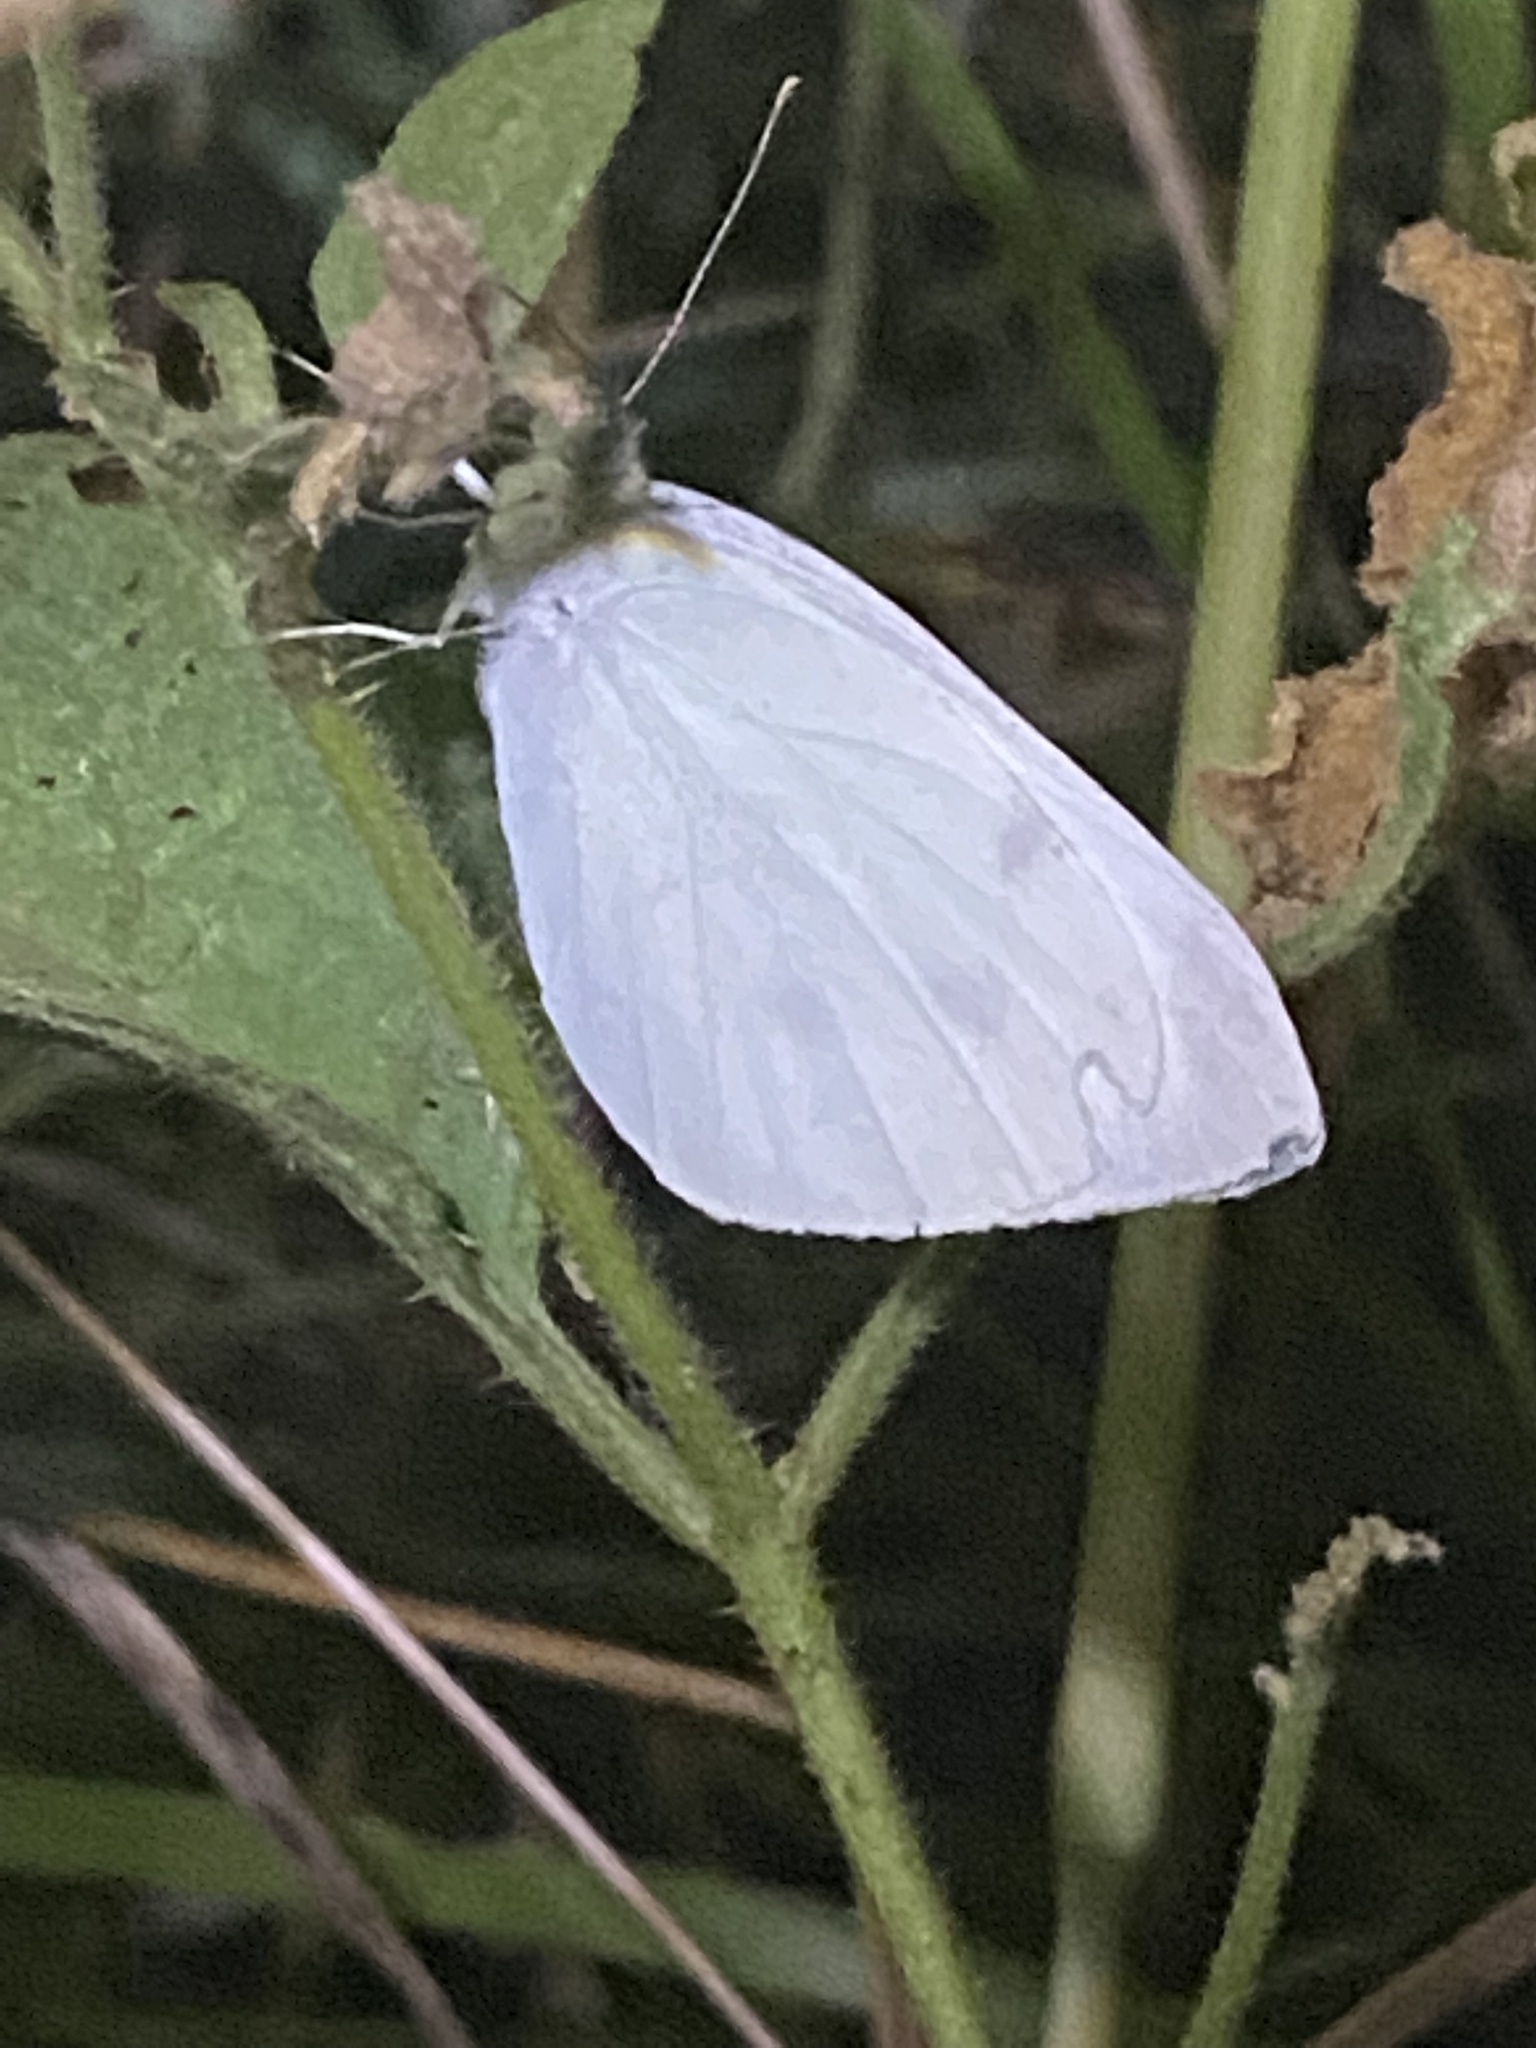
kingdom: Animalia
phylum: Arthropoda
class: Insecta
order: Lepidoptera
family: Pieridae
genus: Pieris
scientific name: Pieris rapae
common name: Small white
